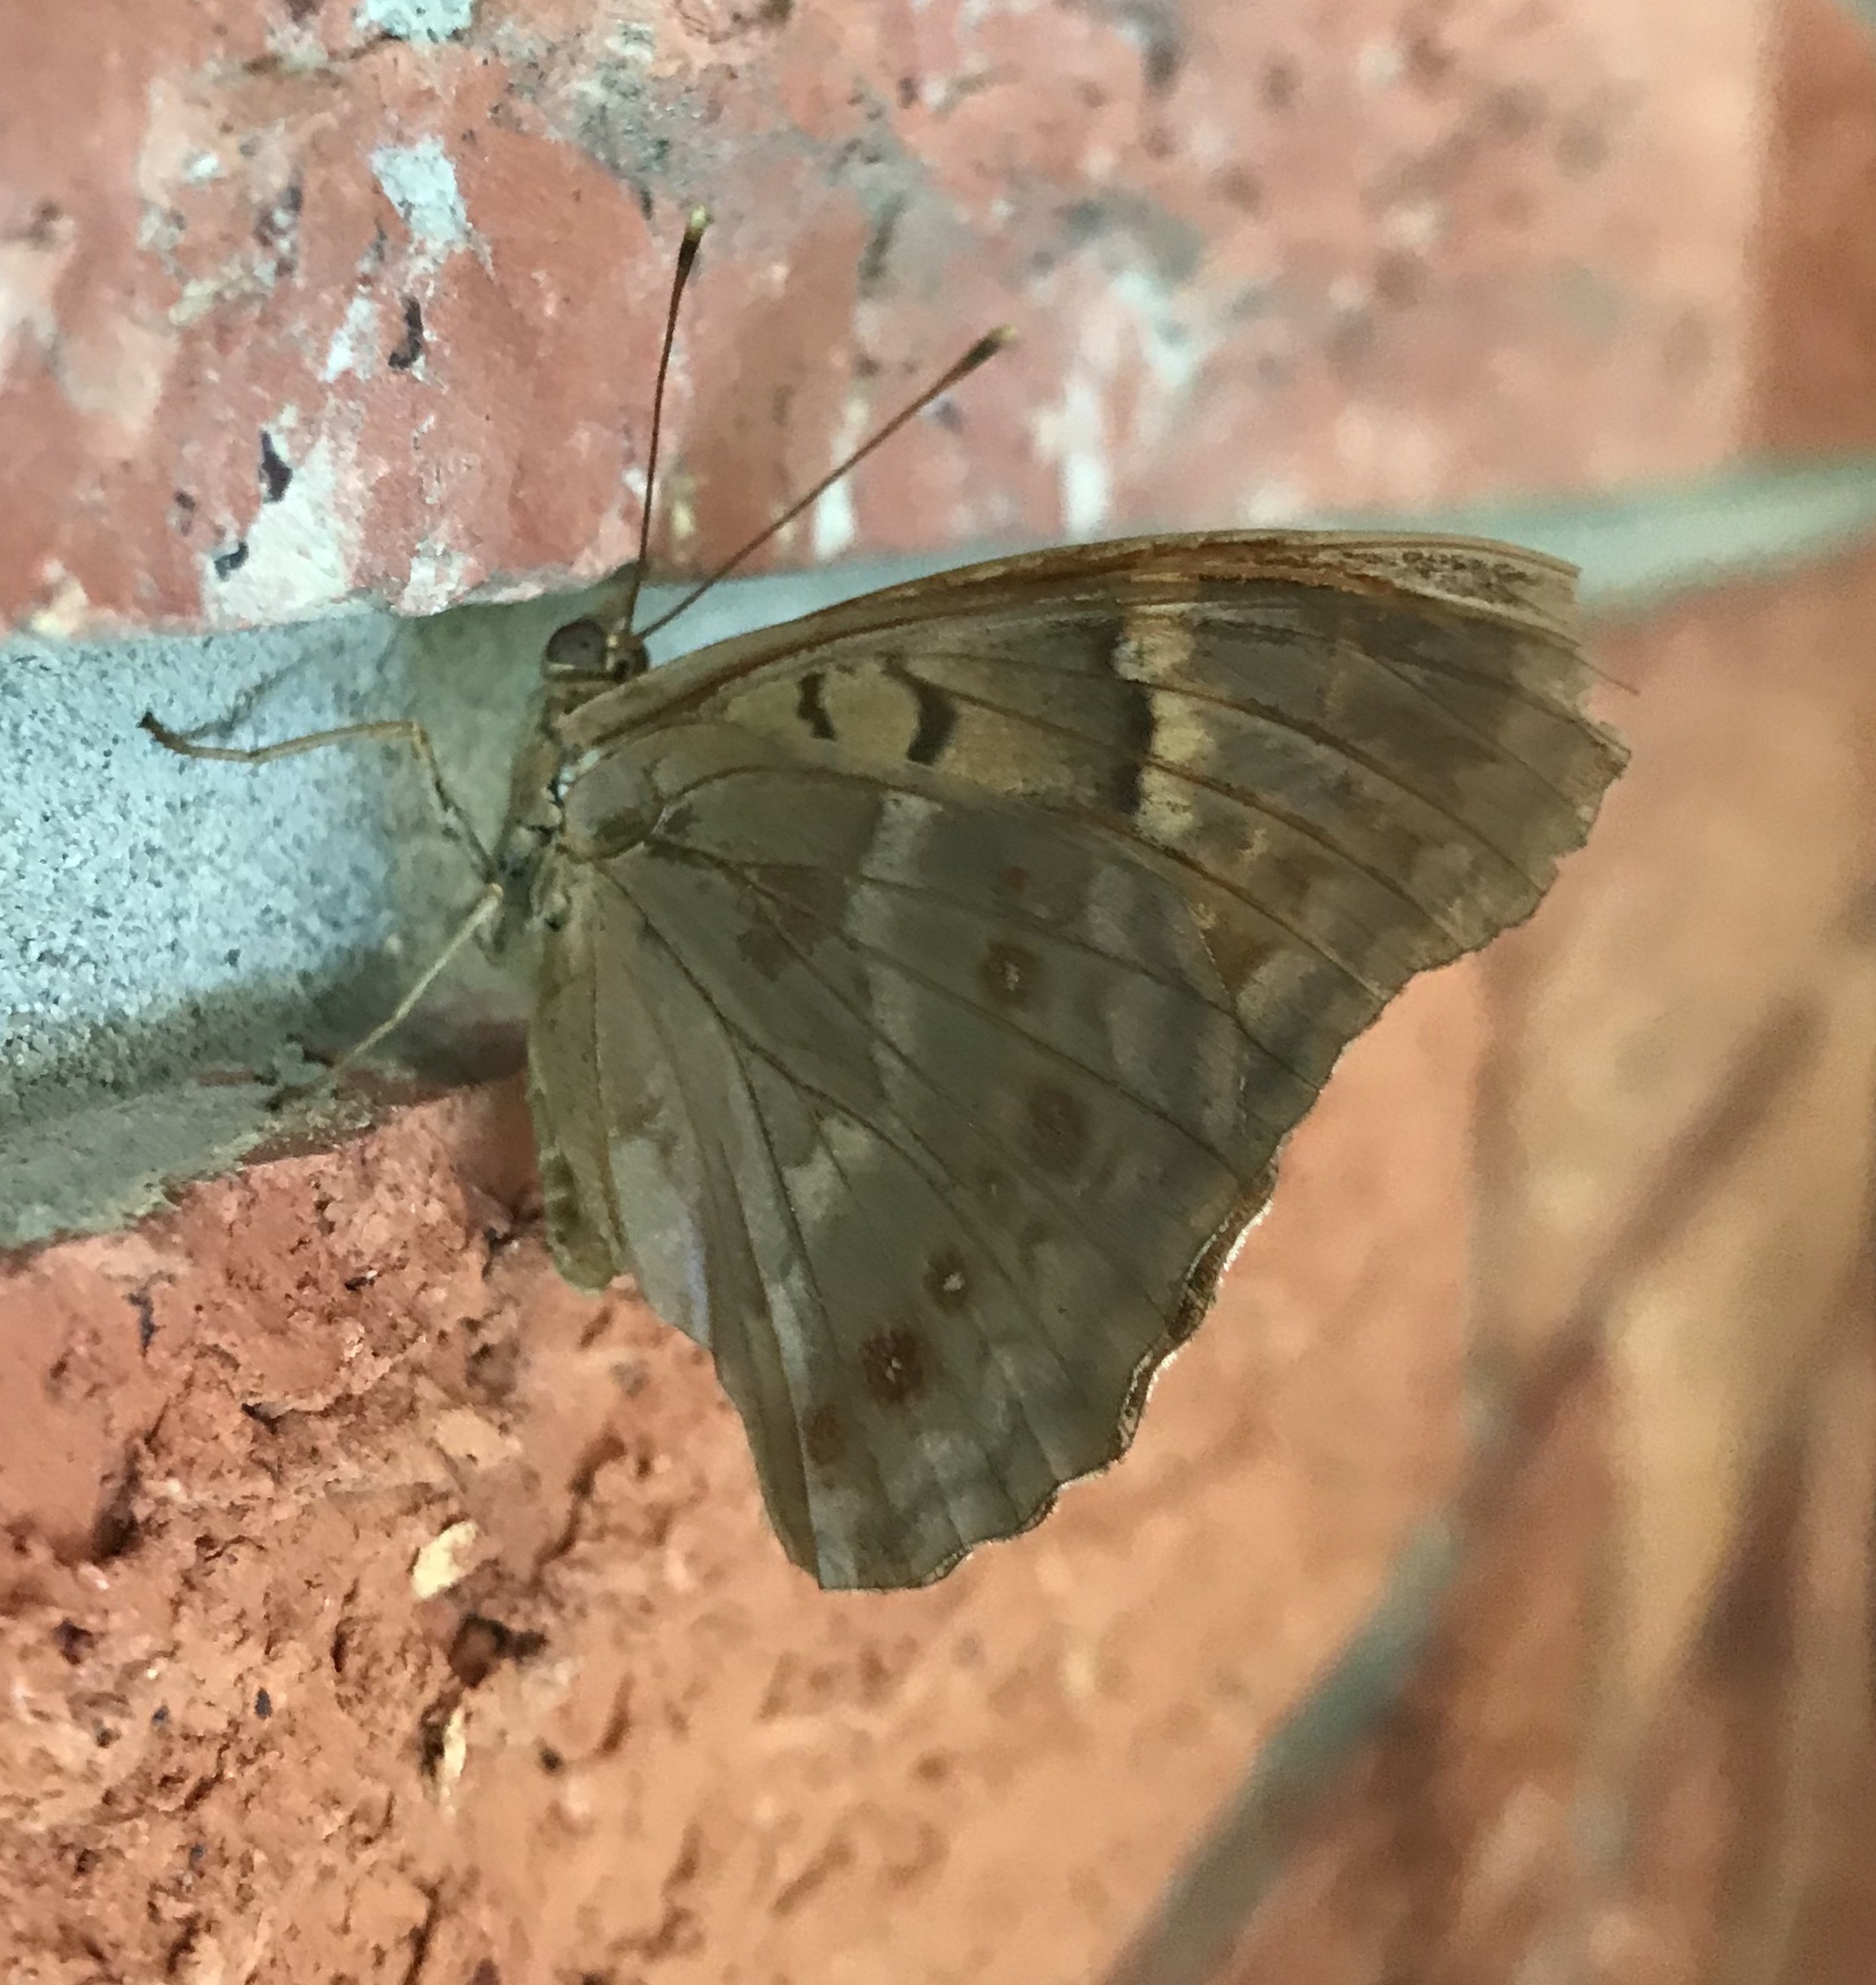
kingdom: Animalia
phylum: Arthropoda
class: Insecta
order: Lepidoptera
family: Nymphalidae
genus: Asterocampa
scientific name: Asterocampa clyton
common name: Tawny emperor
